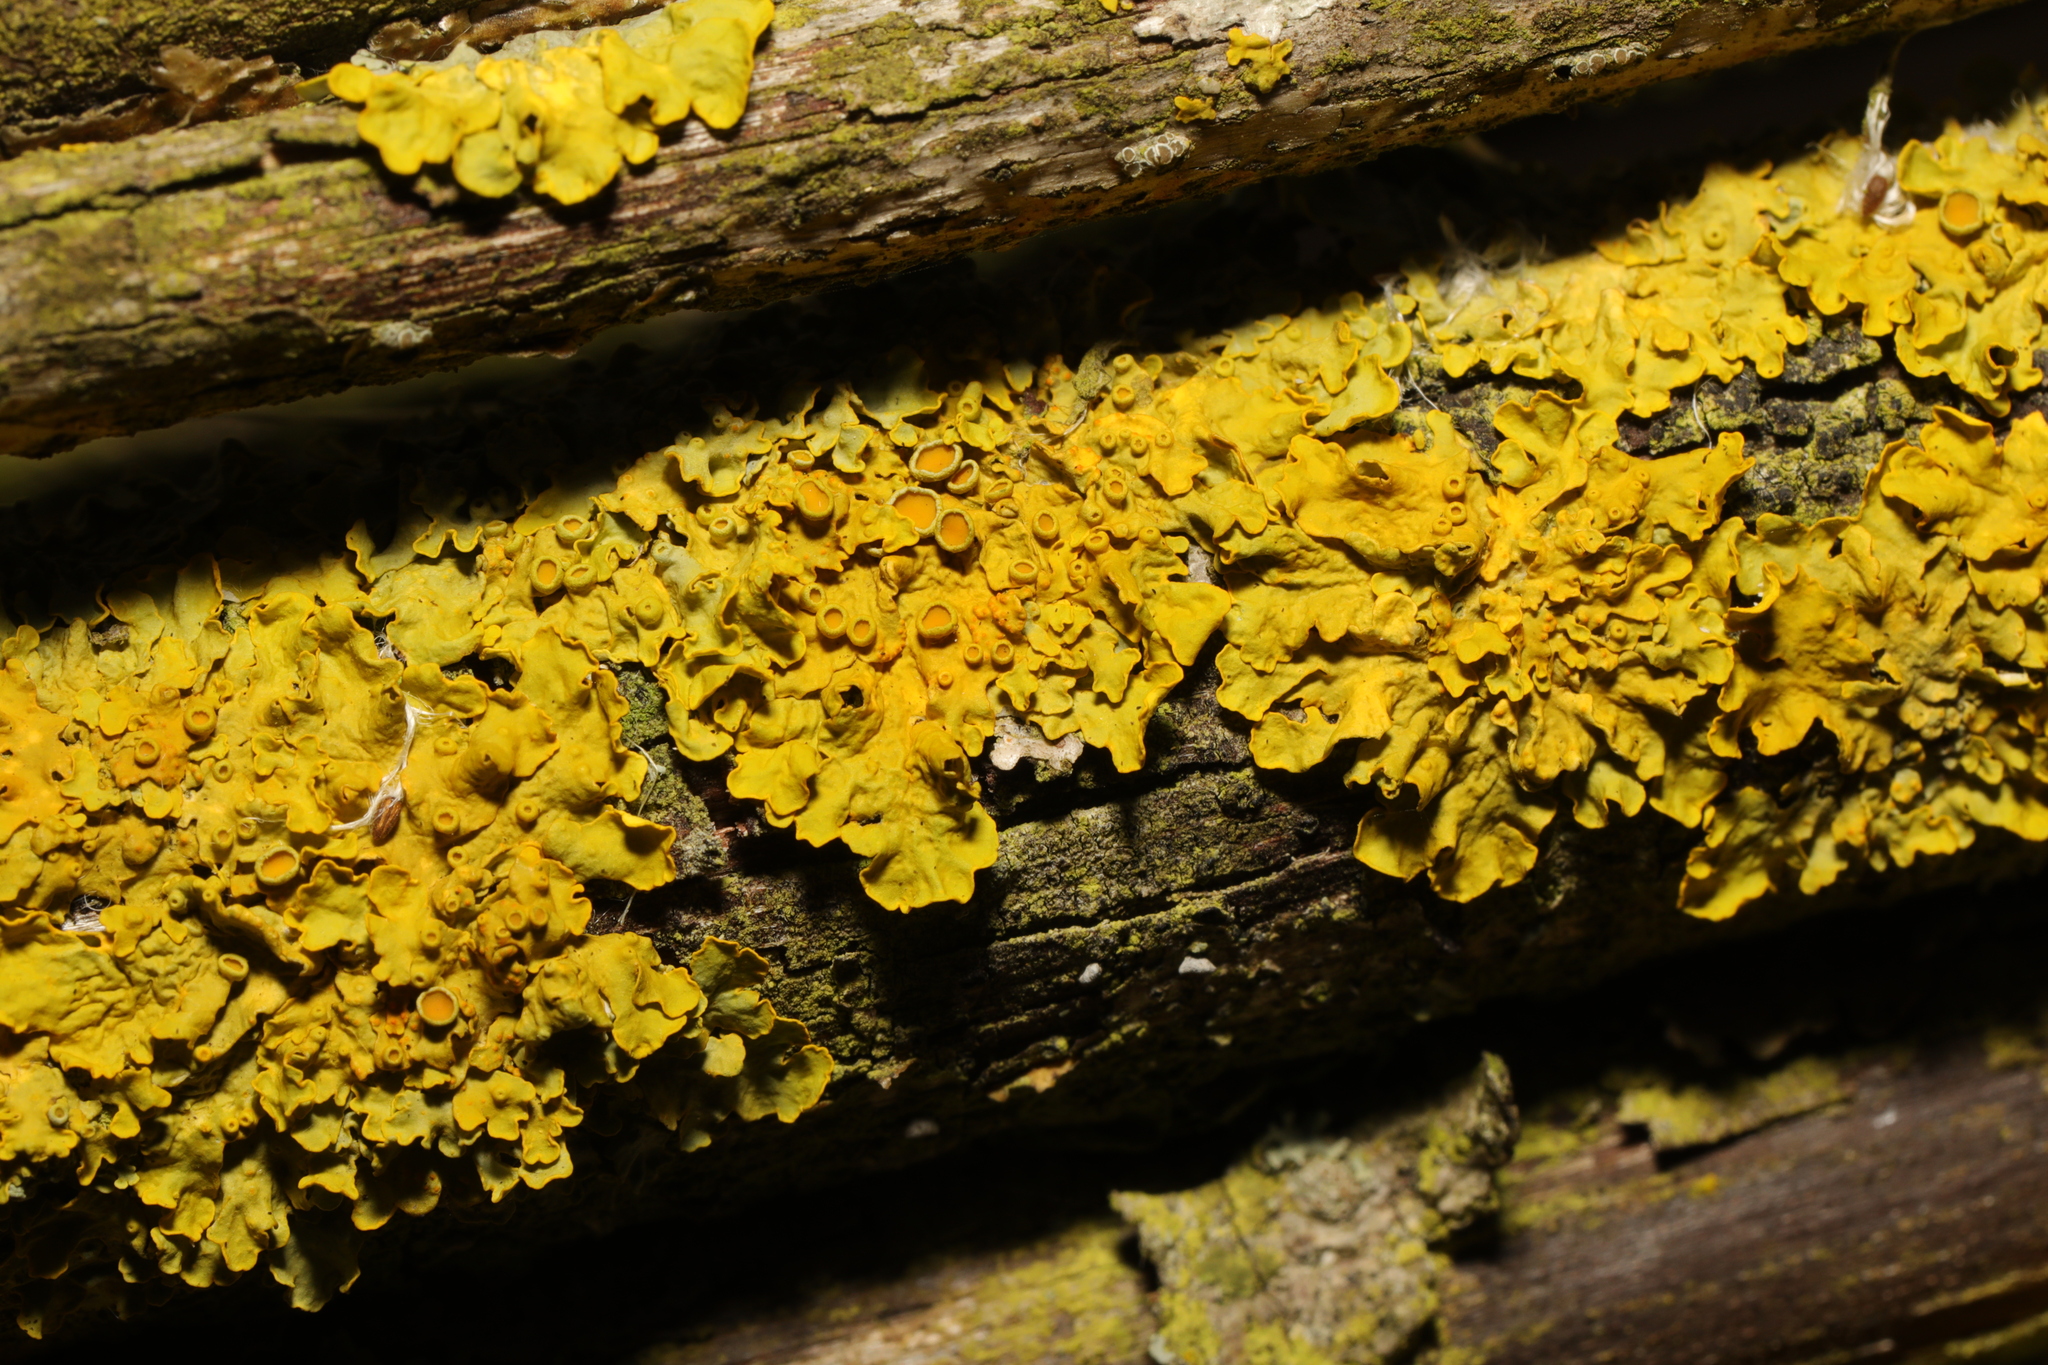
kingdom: Fungi
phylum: Ascomycota
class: Lecanoromycetes
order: Teloschistales
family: Teloschistaceae
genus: Xanthoria
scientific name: Xanthoria parietina
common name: Common orange lichen
